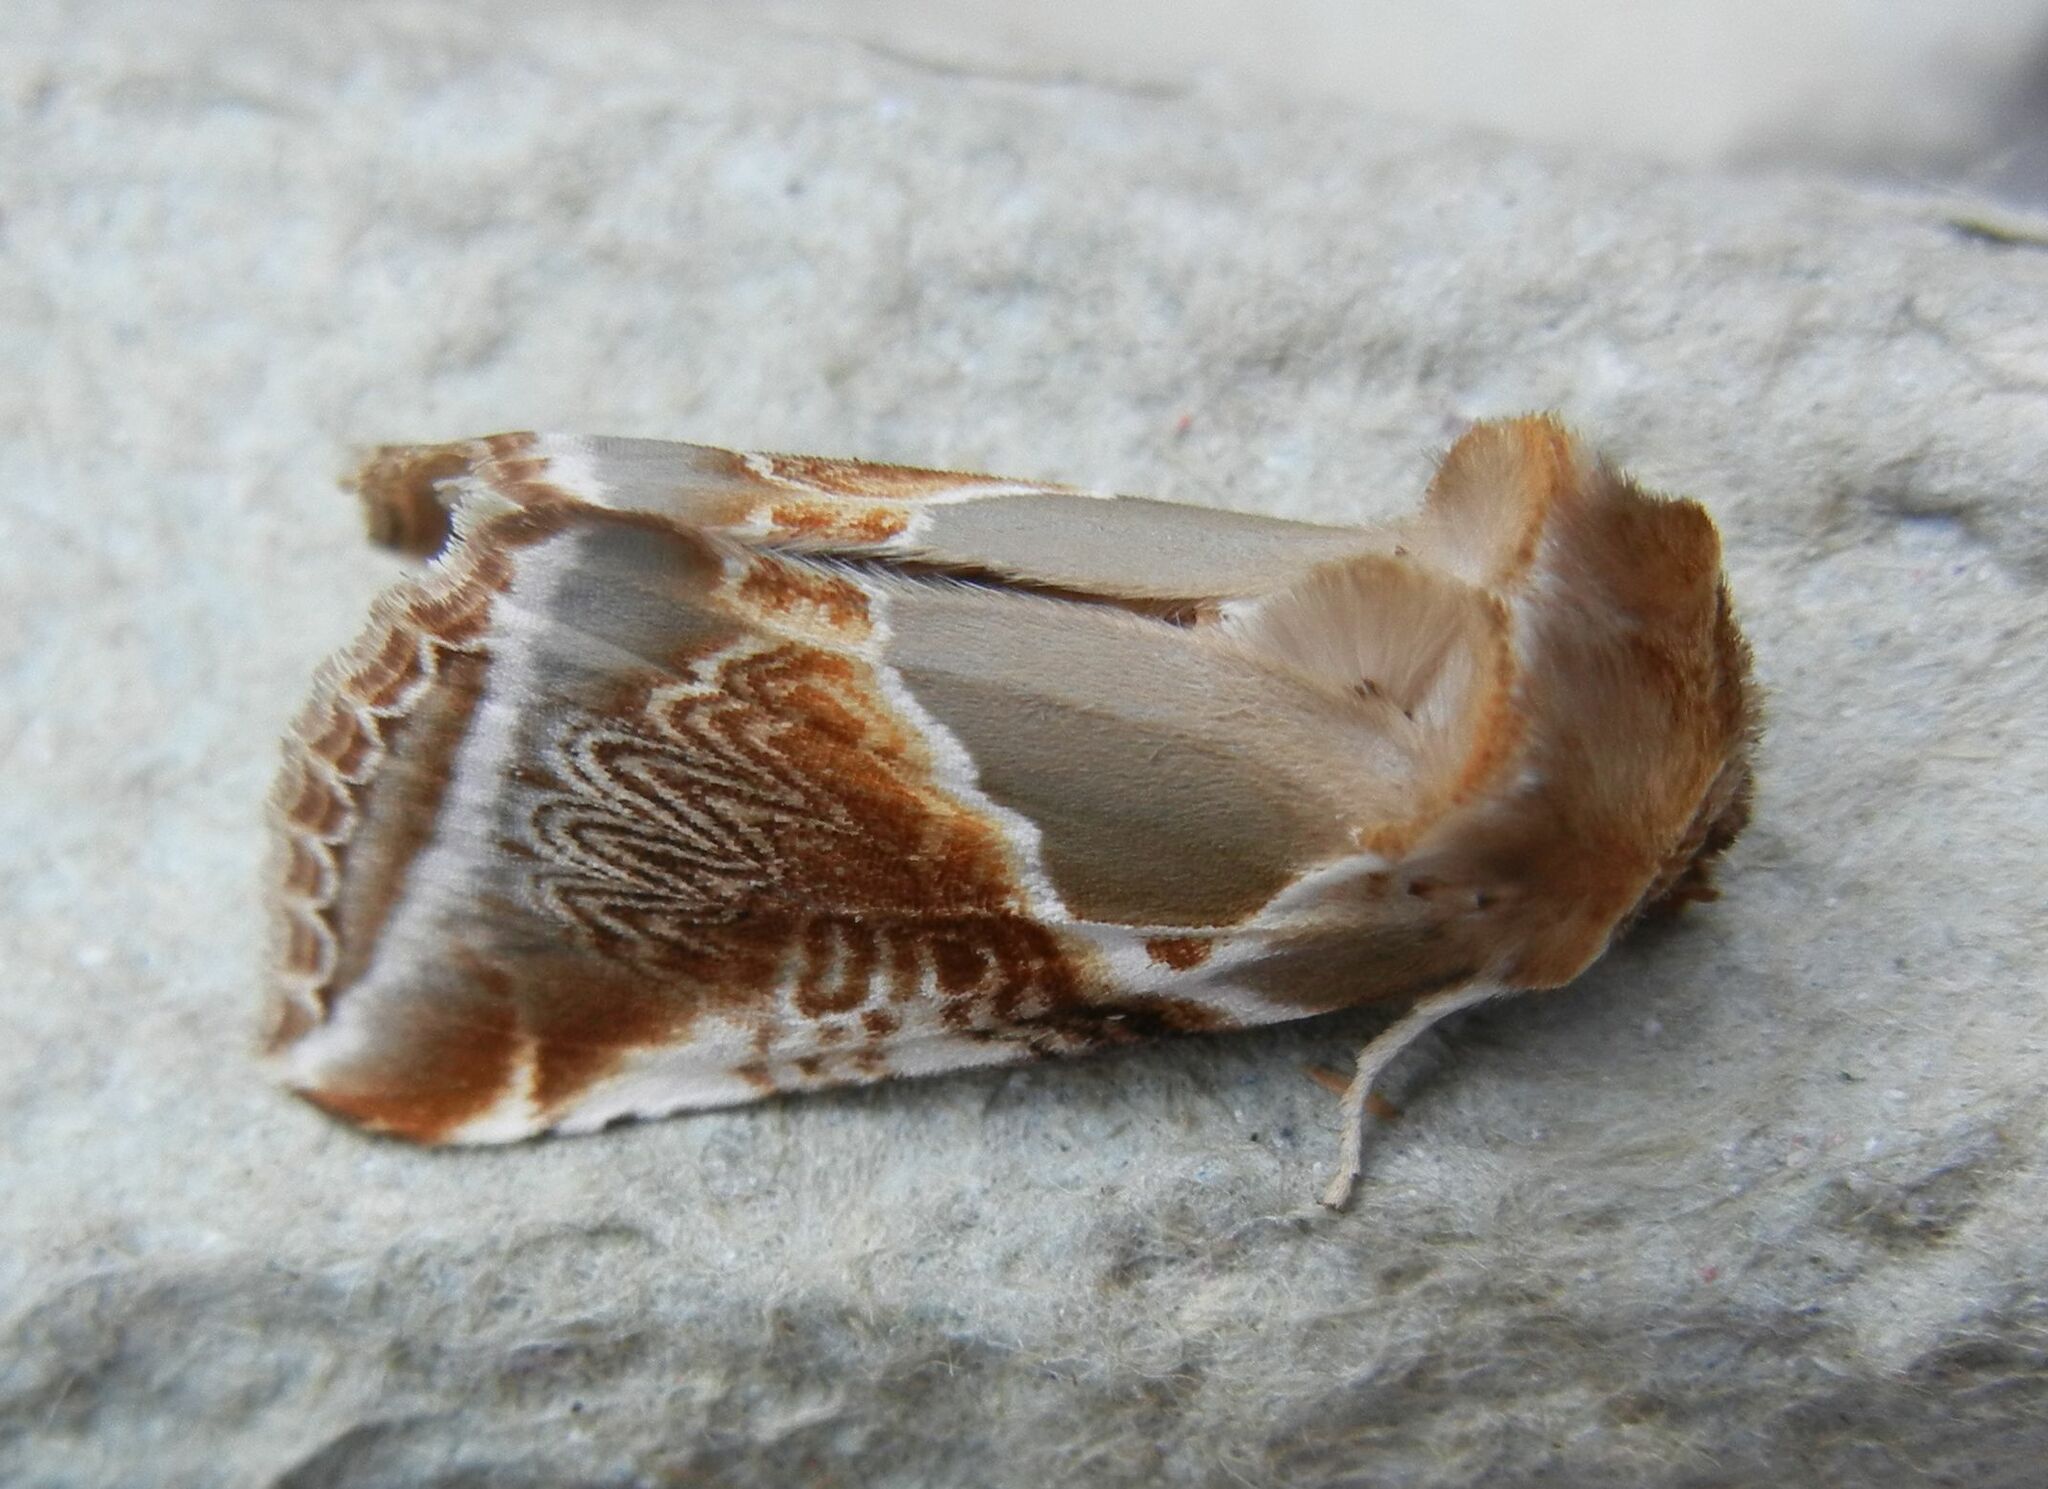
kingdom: Animalia
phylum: Arthropoda
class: Insecta
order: Lepidoptera
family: Drepanidae
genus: Habrosyne
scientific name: Habrosyne pyritoides
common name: Buff arches
